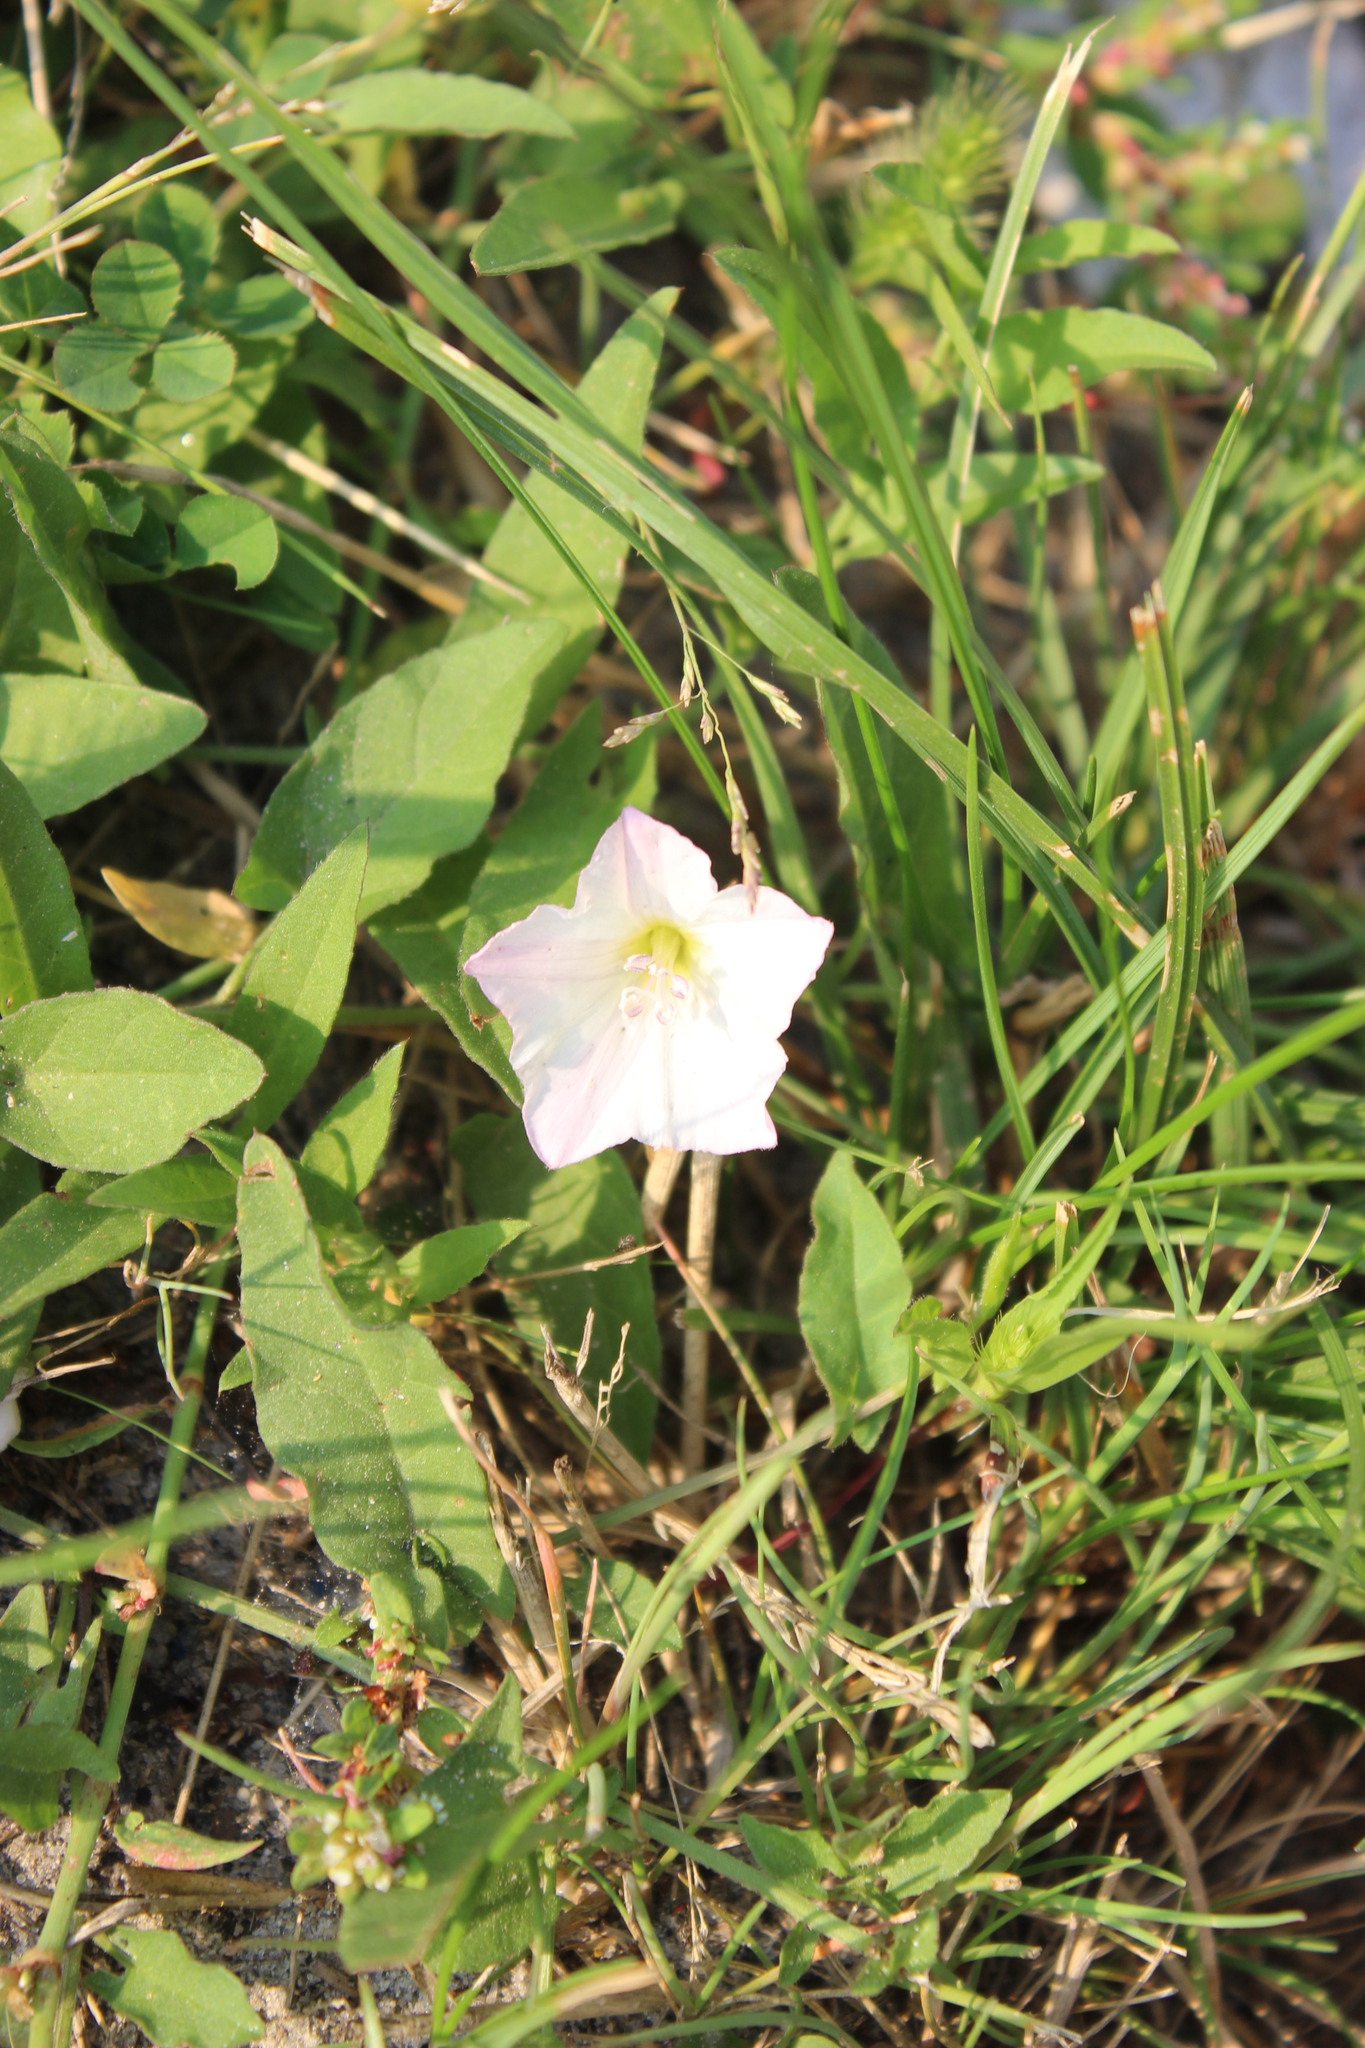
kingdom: Plantae
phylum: Tracheophyta
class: Magnoliopsida
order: Solanales
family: Convolvulaceae
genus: Convolvulus
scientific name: Convolvulus arvensis
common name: Field bindweed
